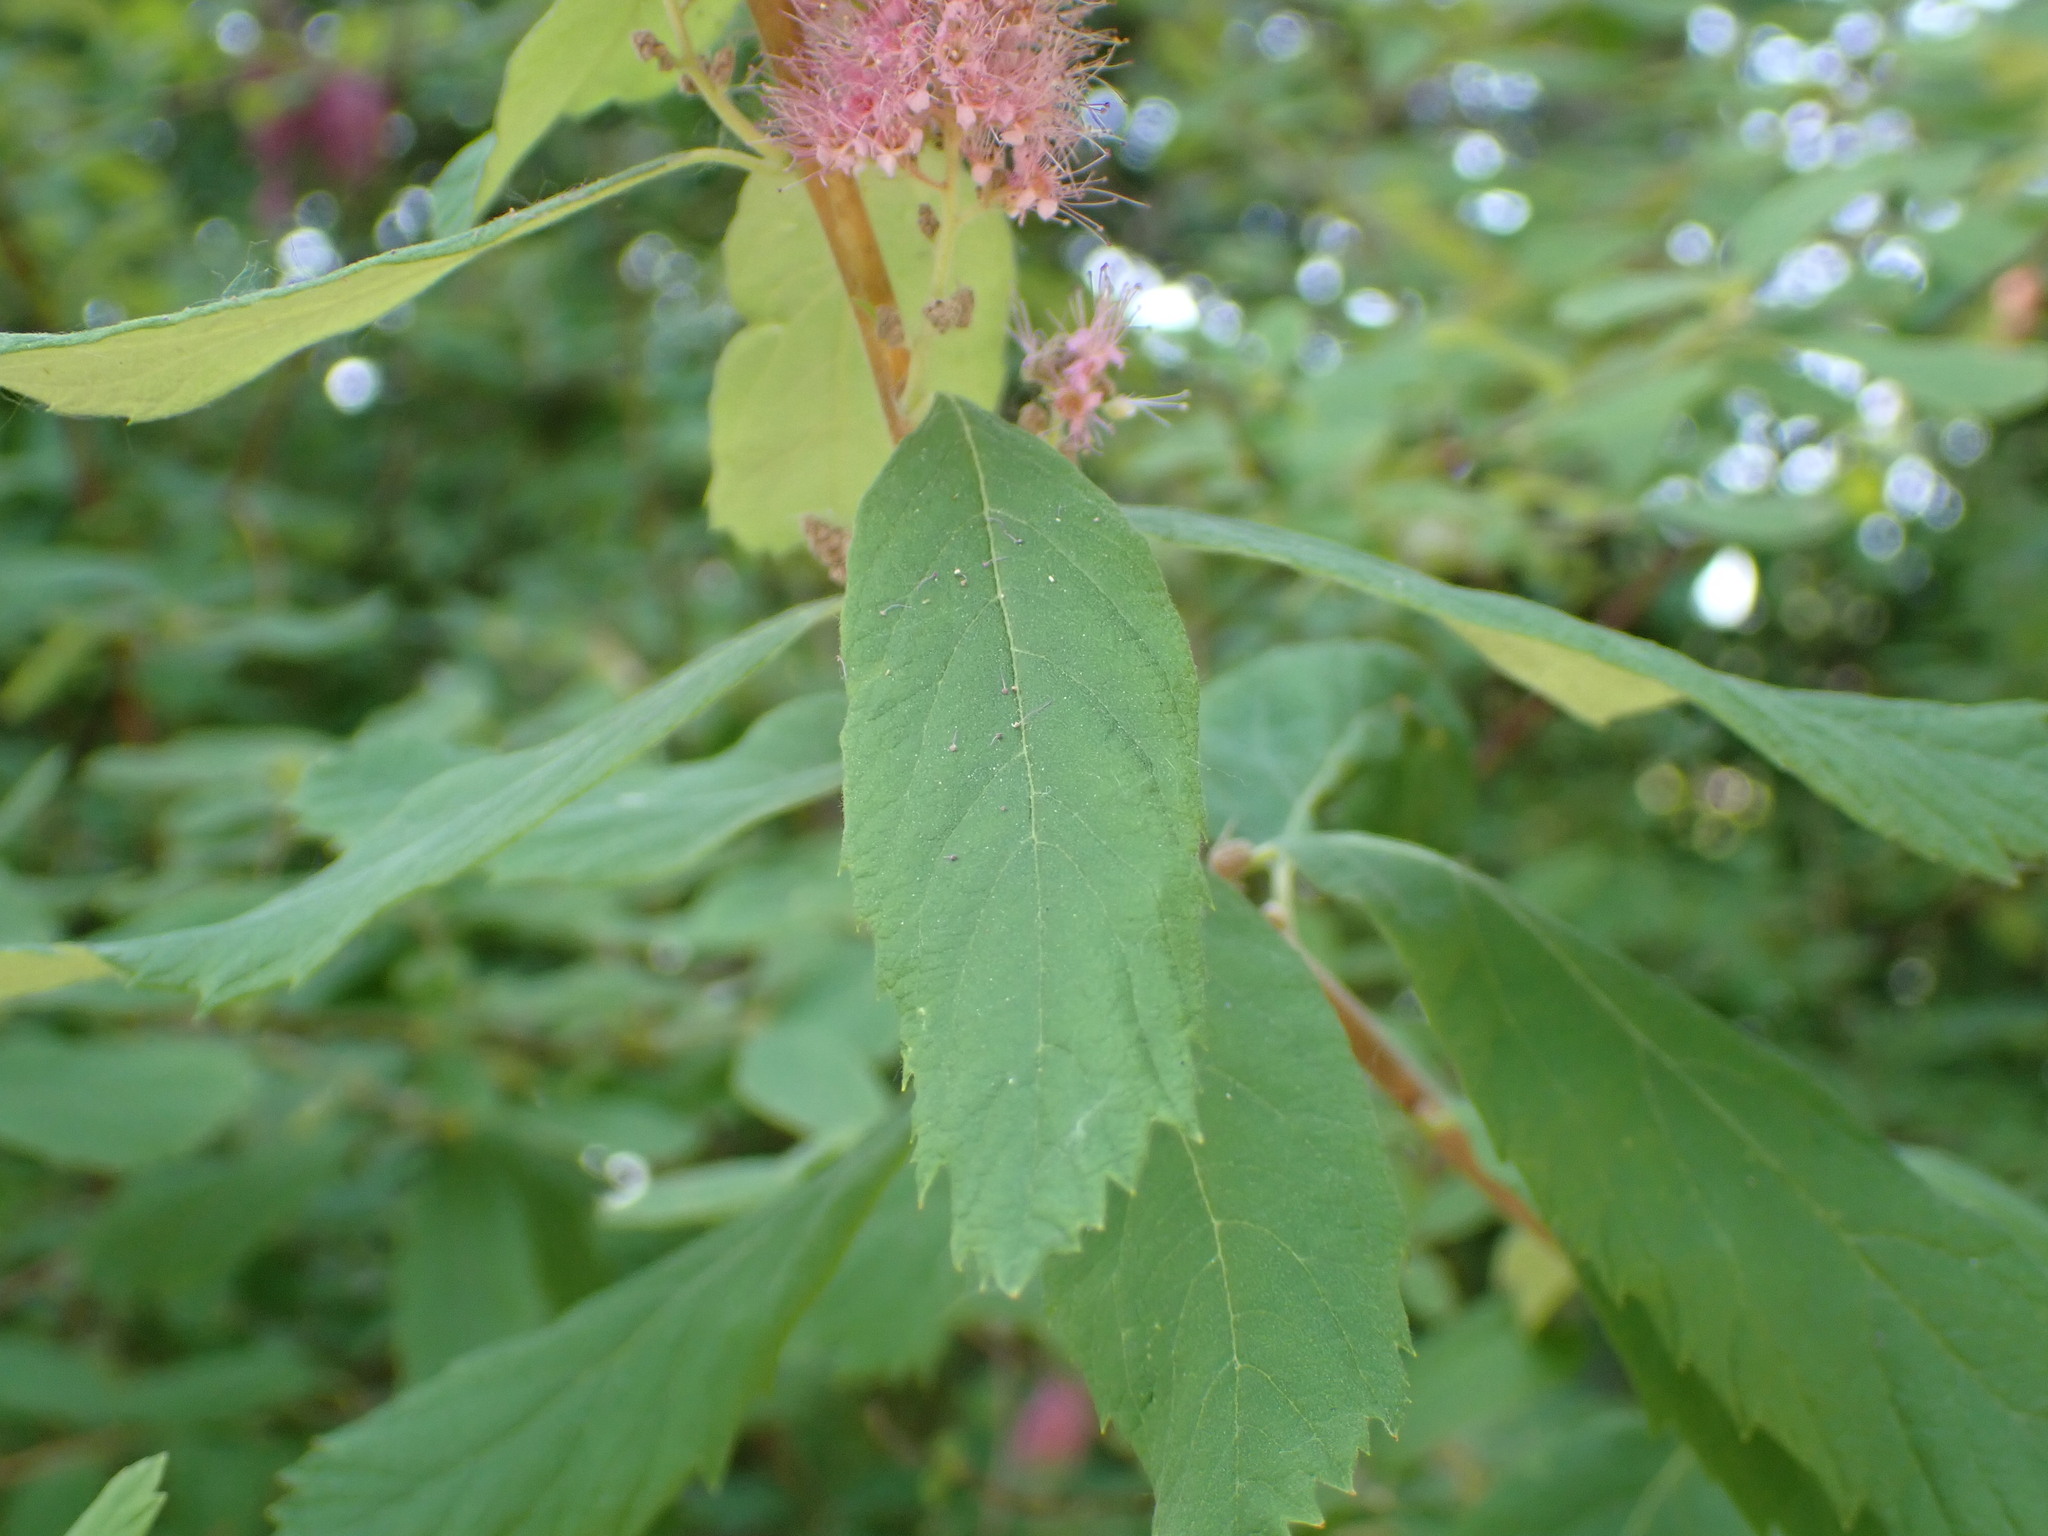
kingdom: Plantae
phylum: Tracheophyta
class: Magnoliopsida
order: Rosales
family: Rosaceae
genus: Spiraea
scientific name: Spiraea douglasii
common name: Steeplebush
